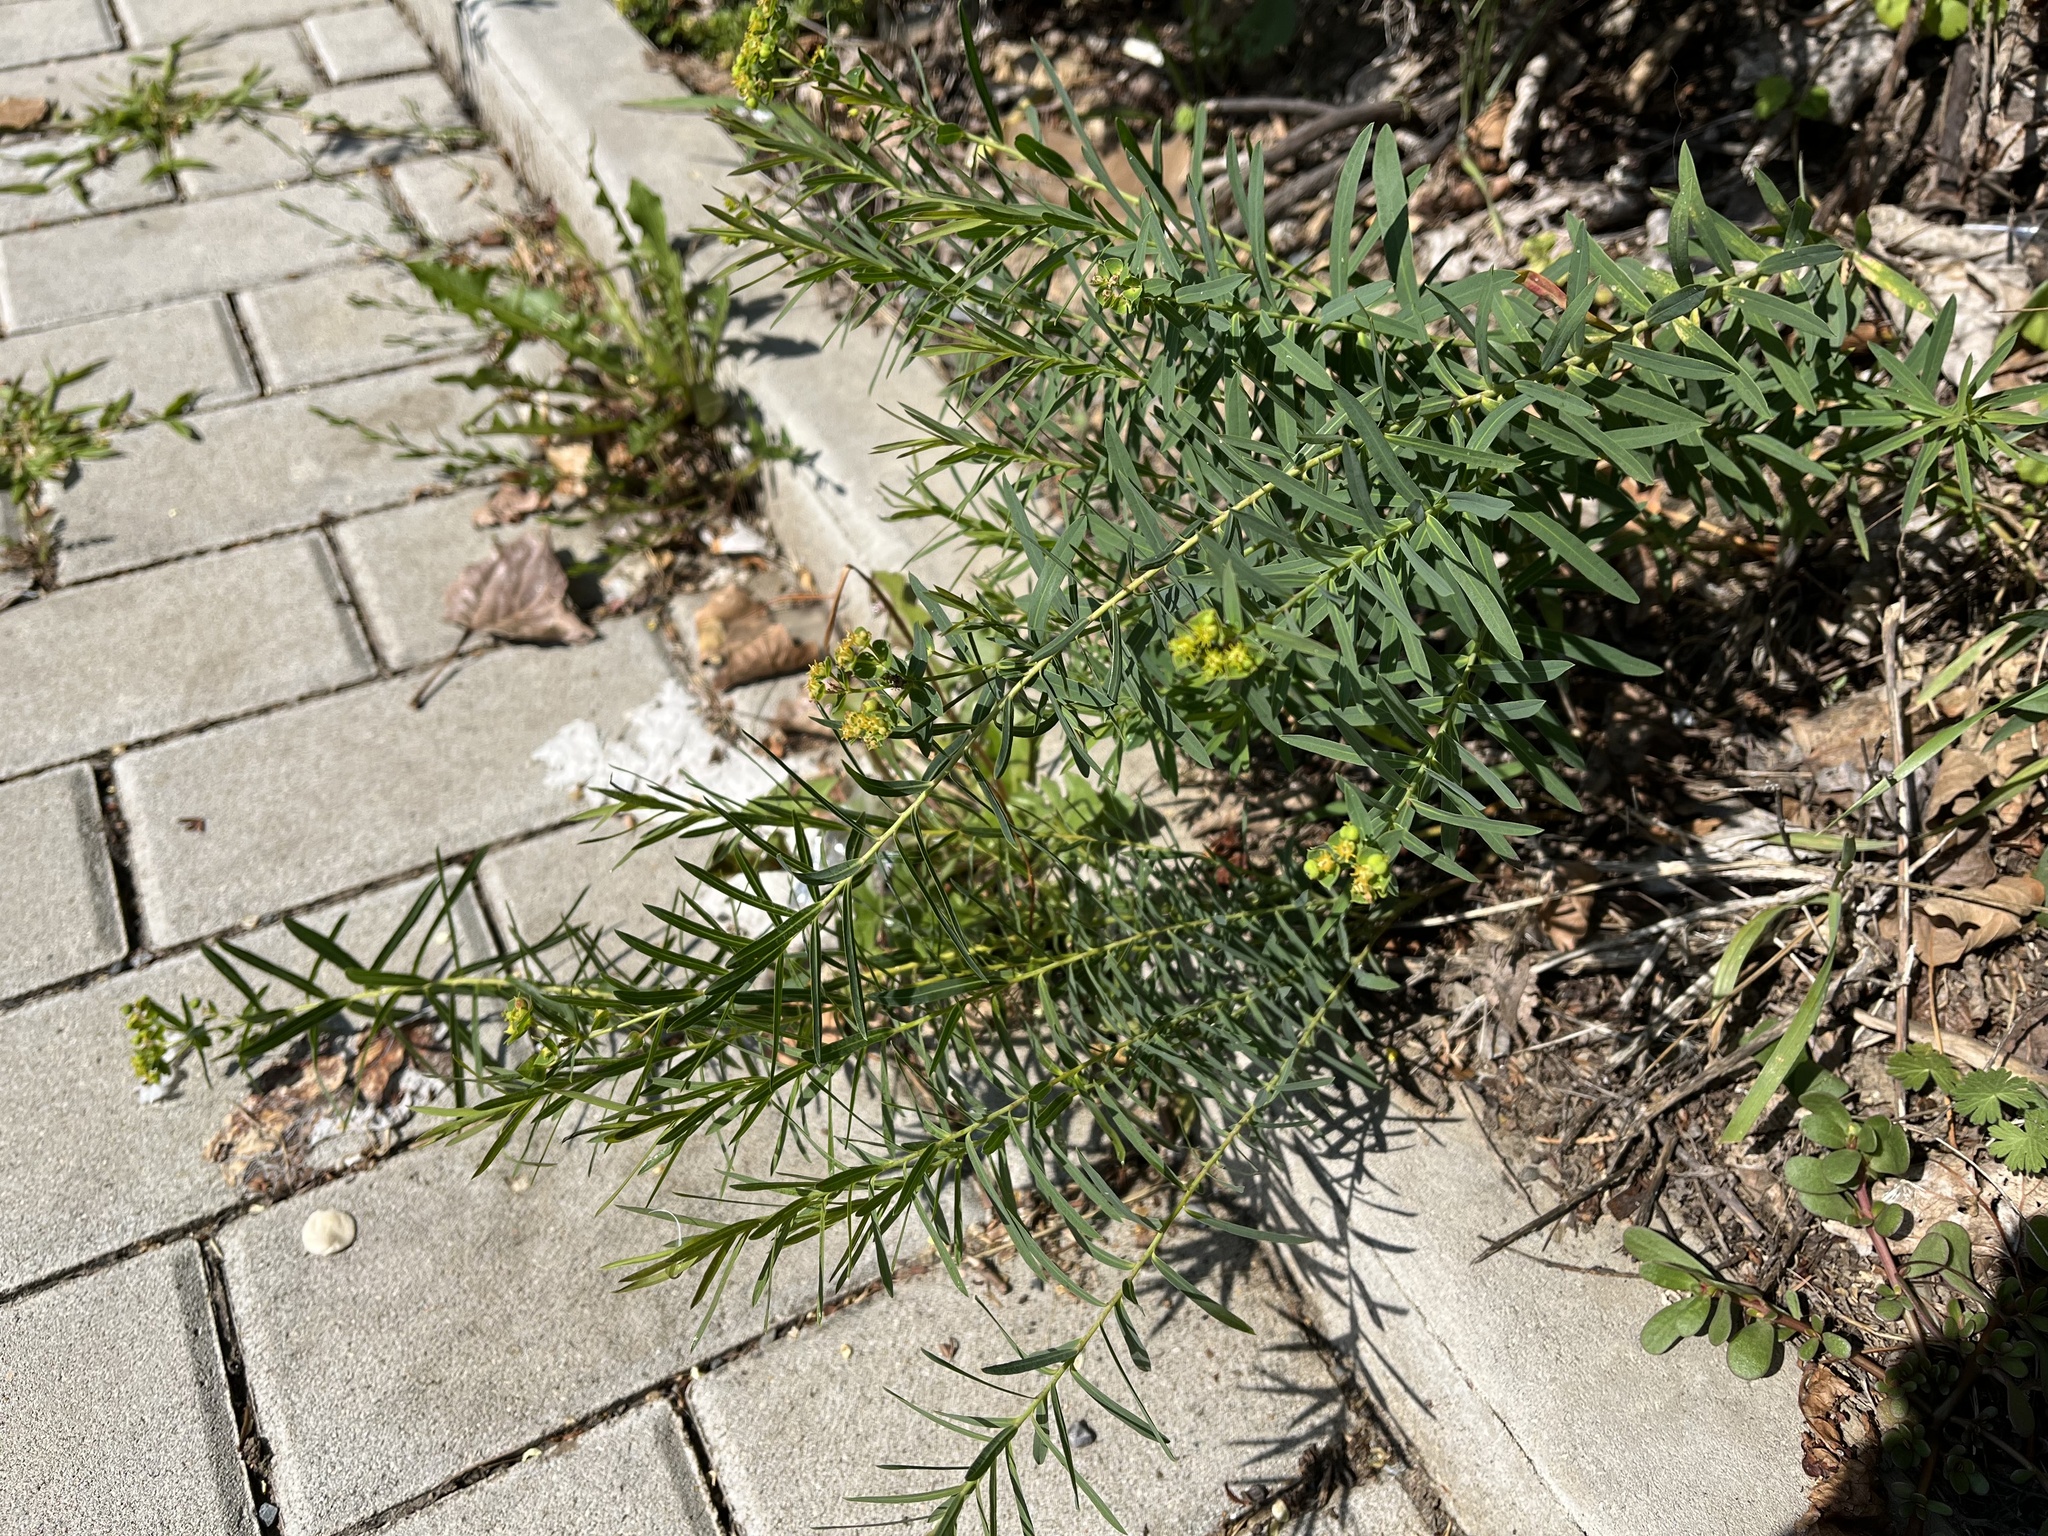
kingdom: Plantae
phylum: Tracheophyta
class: Magnoliopsida
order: Malpighiales
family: Euphorbiaceae
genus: Euphorbia
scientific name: Euphorbia virgata
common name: Leafy spurge
